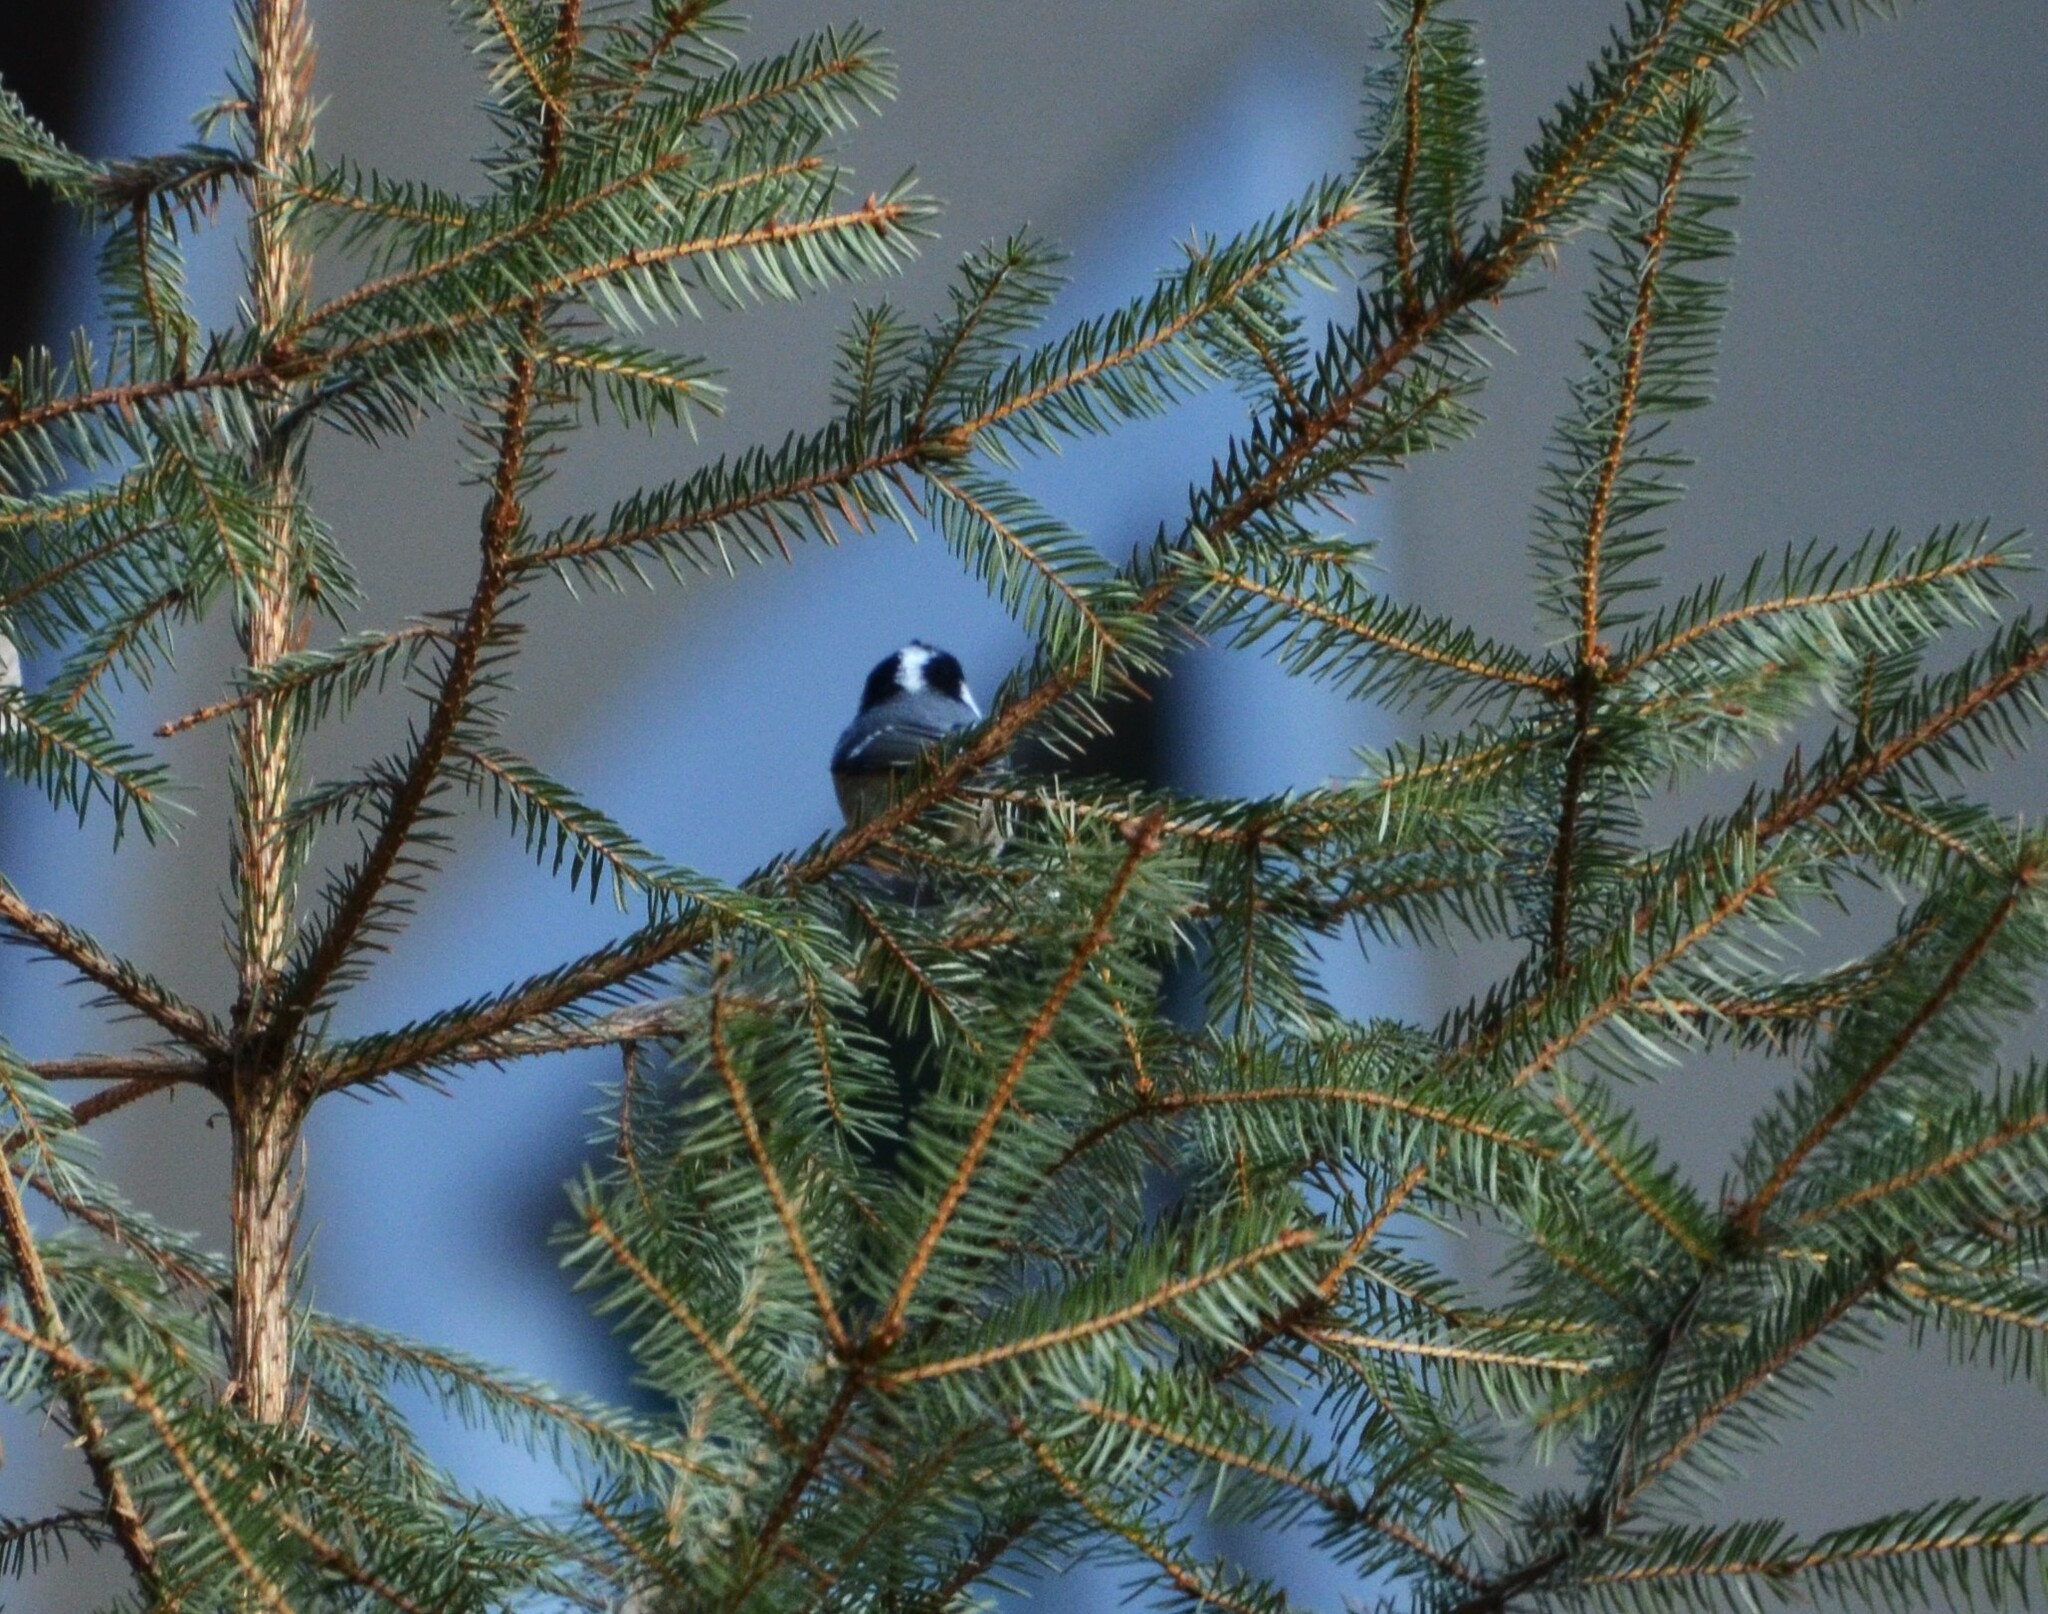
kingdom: Animalia
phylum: Chordata
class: Aves
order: Passeriformes
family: Paridae
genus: Periparus
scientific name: Periparus ater
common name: Coal tit
